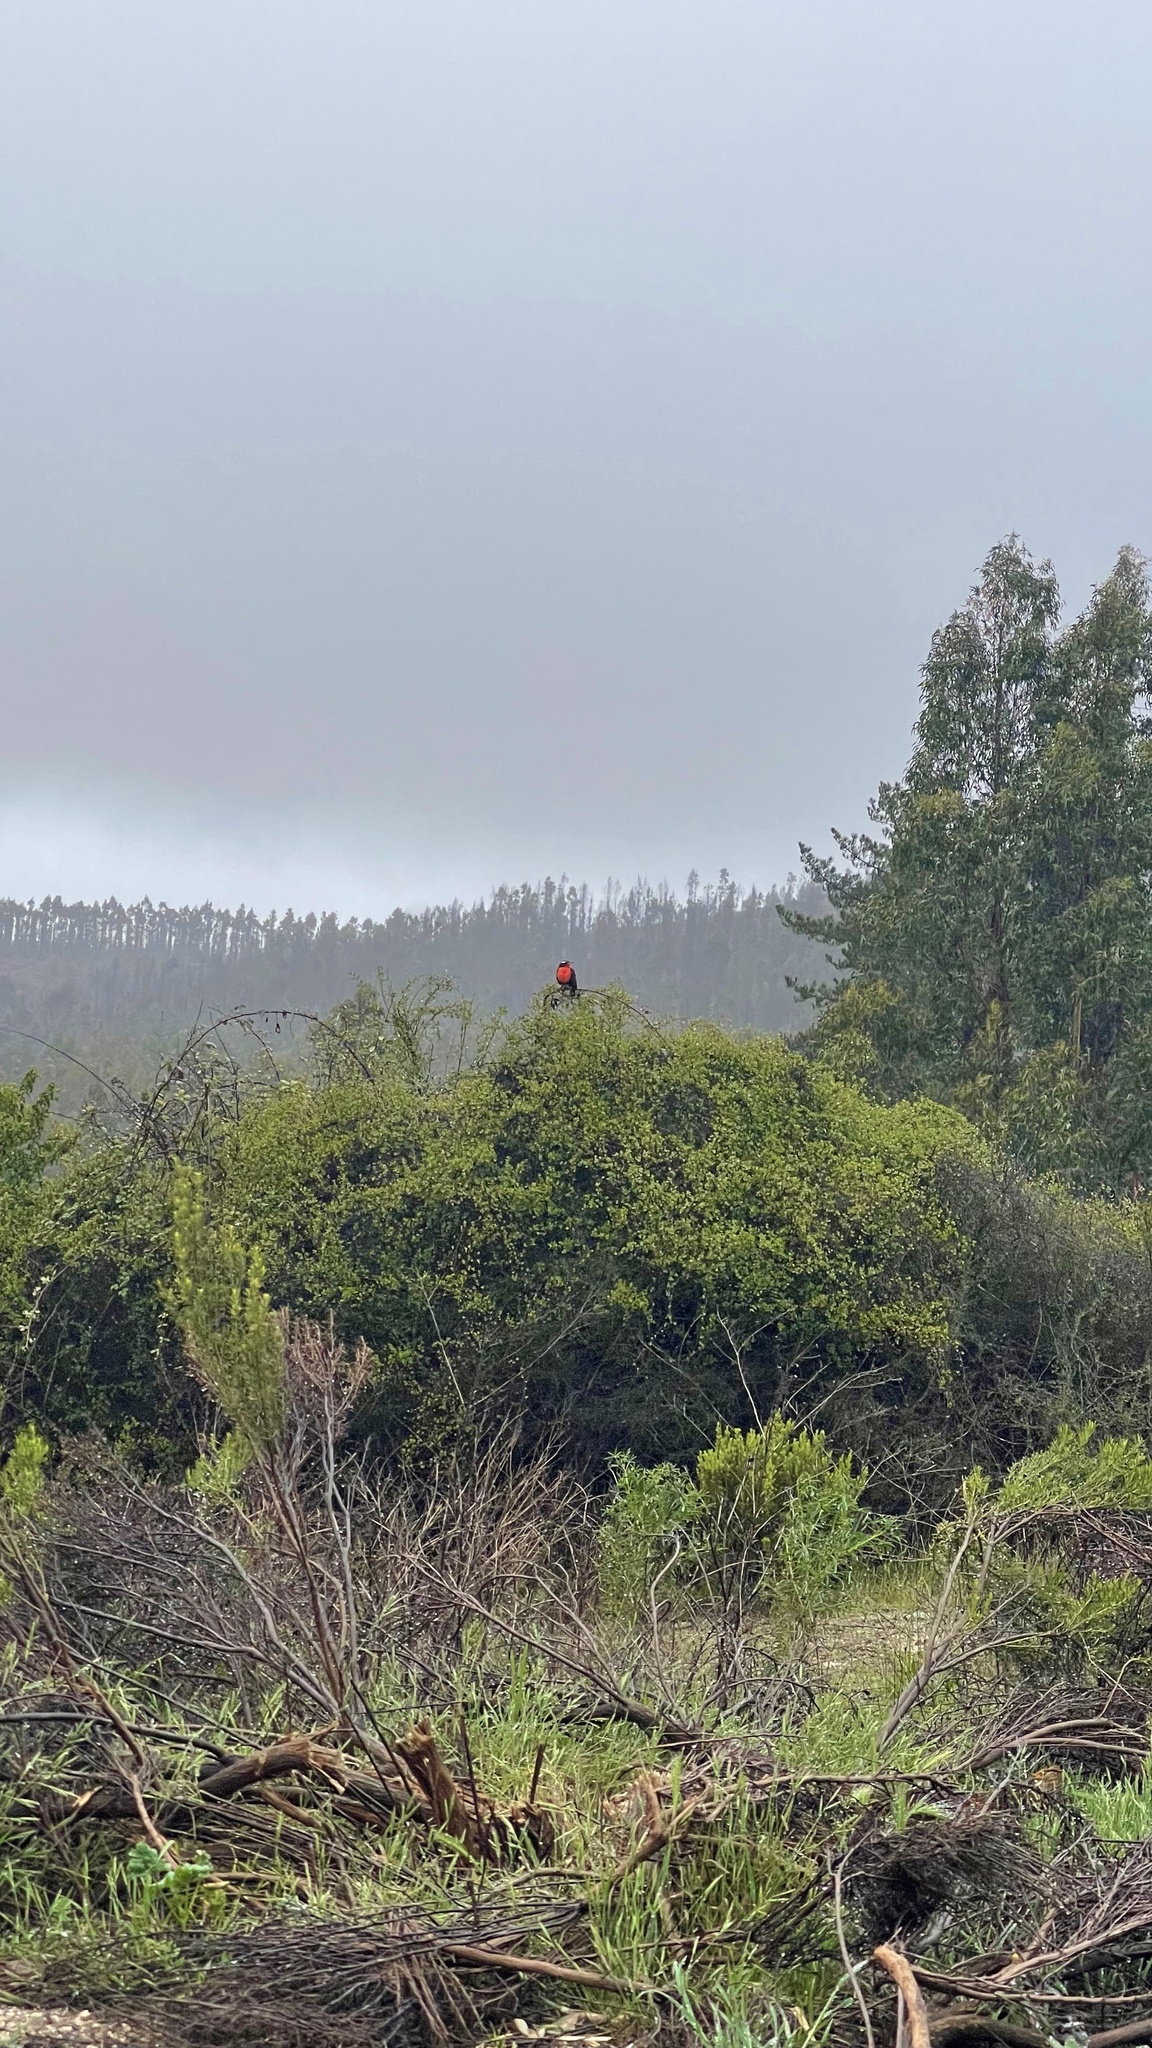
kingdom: Animalia
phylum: Chordata
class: Aves
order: Passeriformes
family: Icteridae
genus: Sturnella
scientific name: Sturnella loyca
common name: Long-tailed meadowlark
